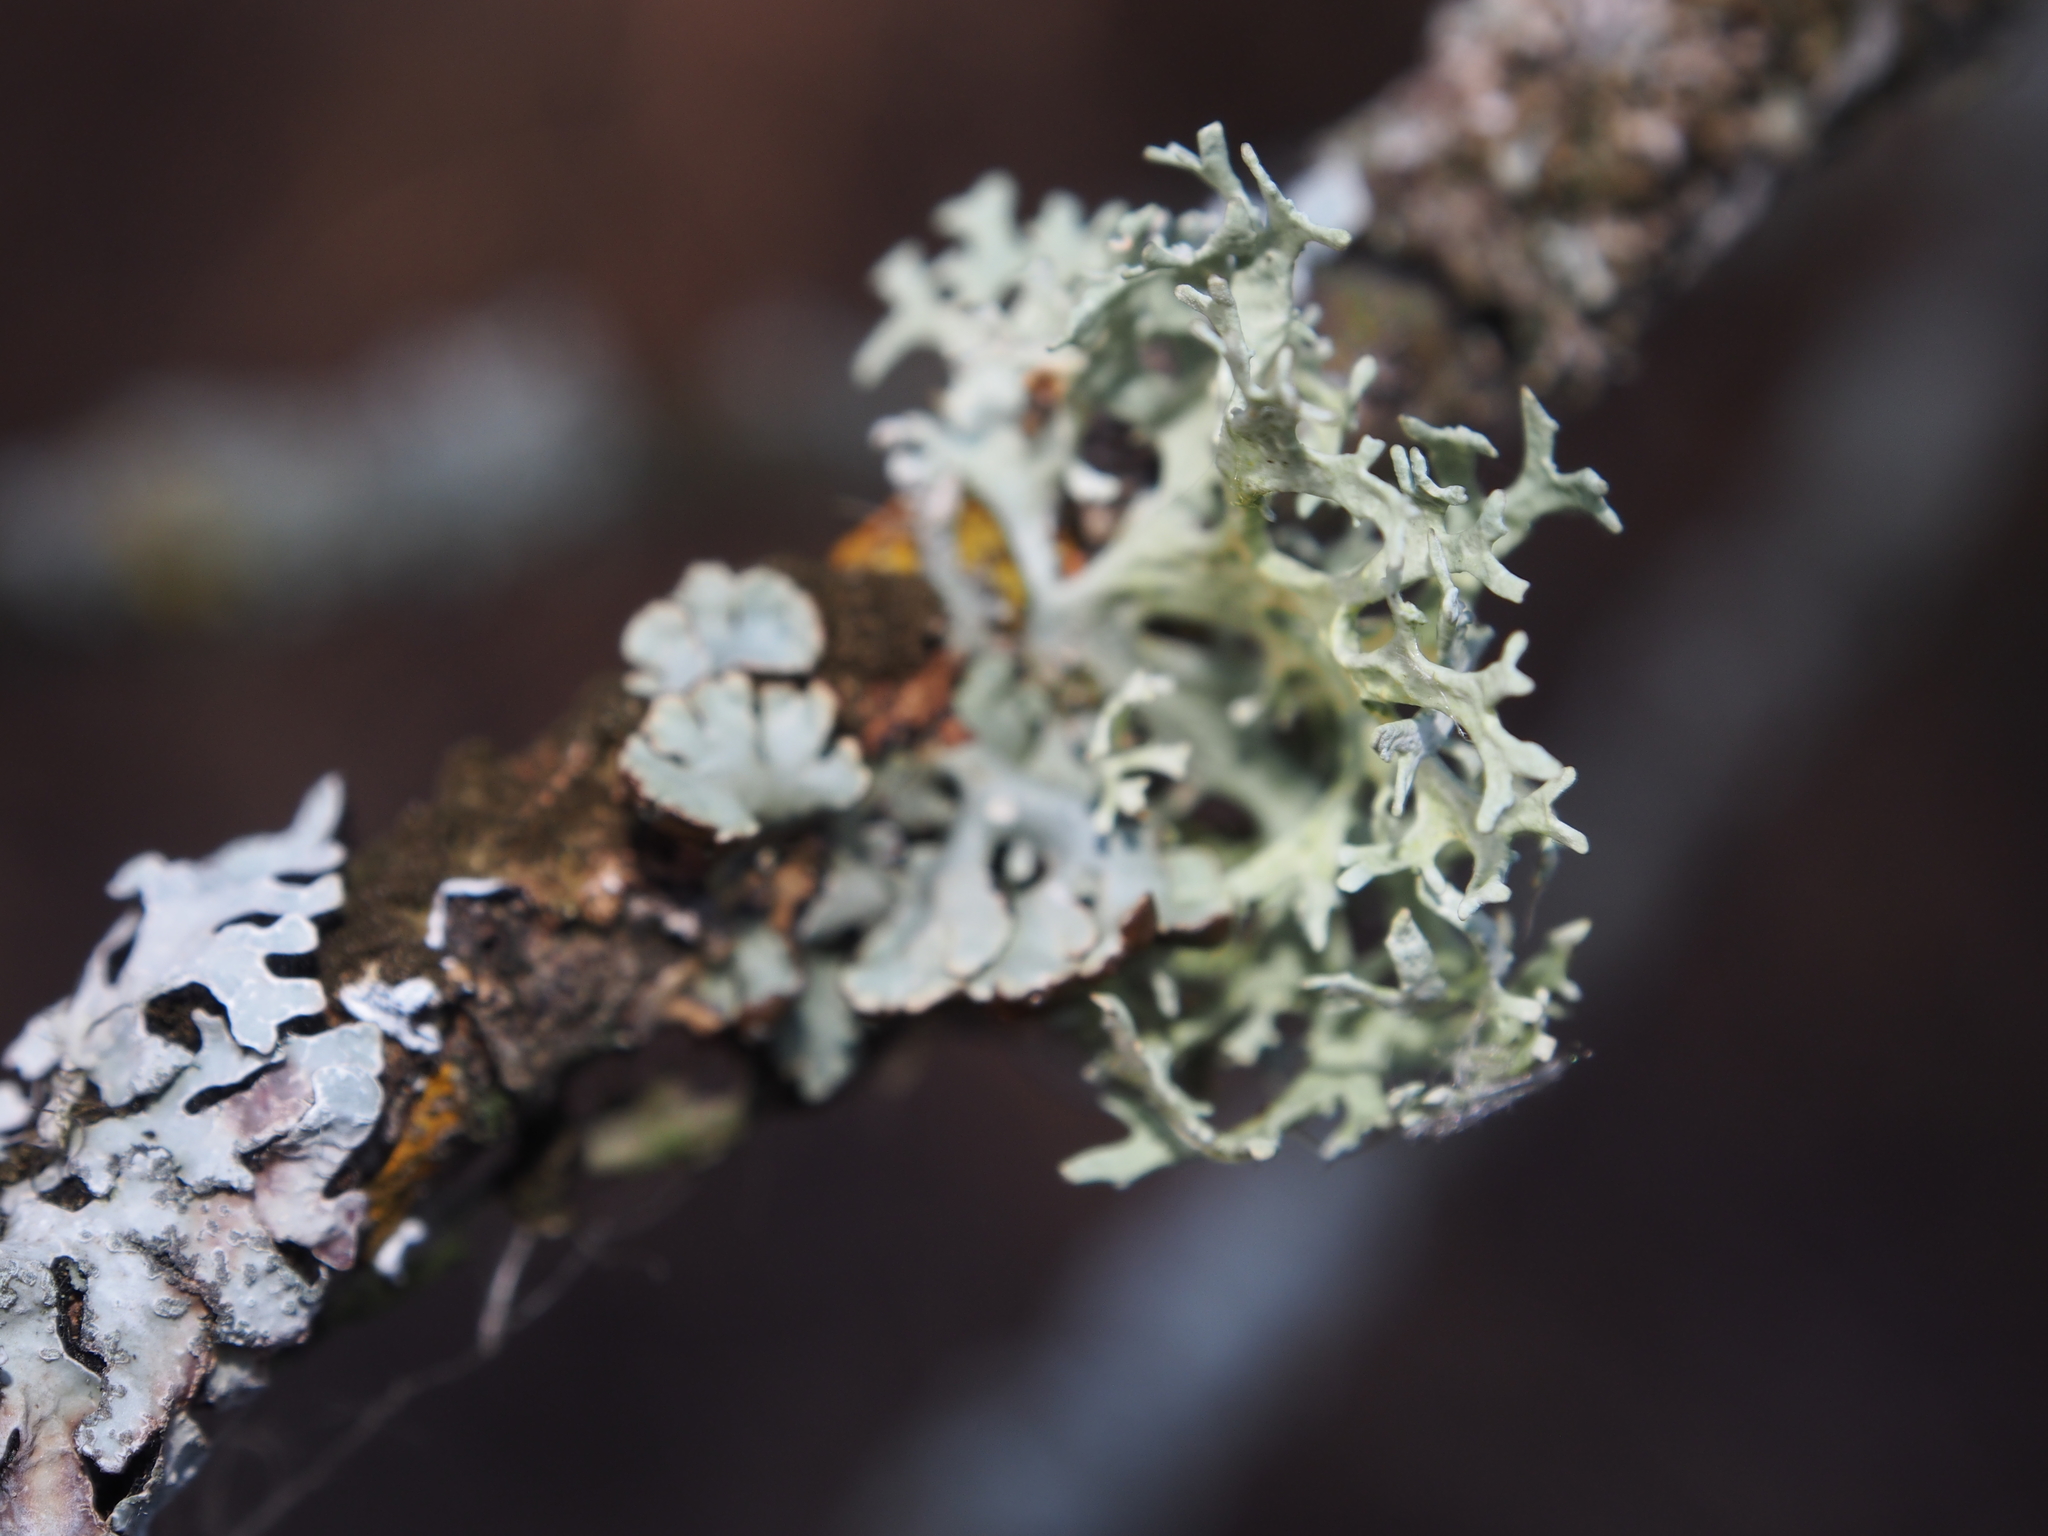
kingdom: Fungi
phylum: Ascomycota
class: Lecanoromycetes
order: Lecanorales
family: Parmeliaceae
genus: Evernia
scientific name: Evernia prunastri
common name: Oak moss
